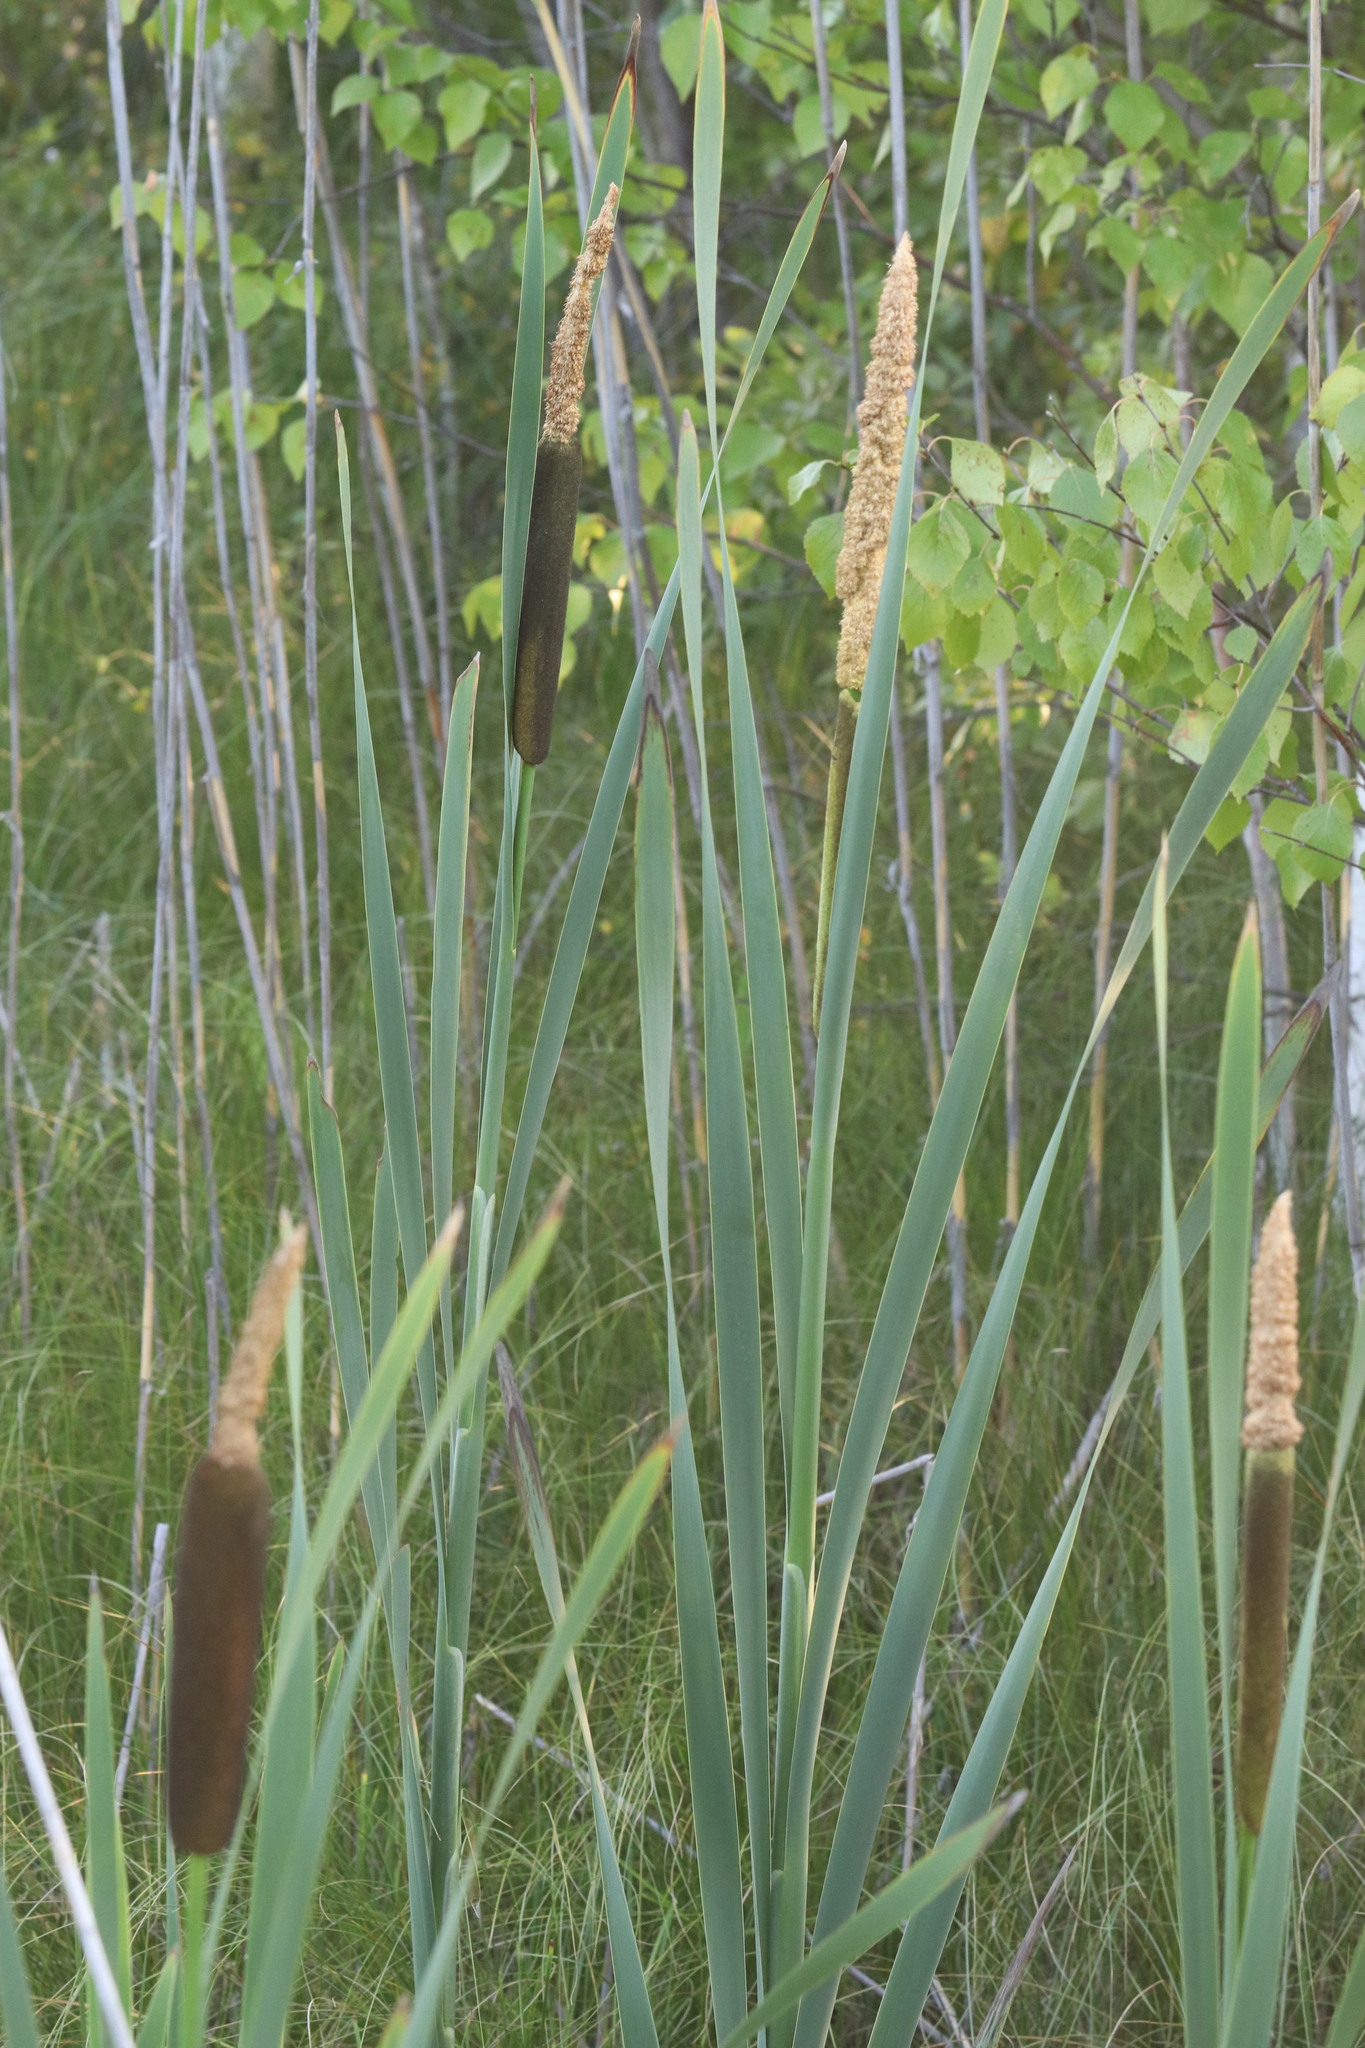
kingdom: Plantae
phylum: Tracheophyta
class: Liliopsida
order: Poales
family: Typhaceae
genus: Typha
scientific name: Typha latifolia
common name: Broadleaf cattail
